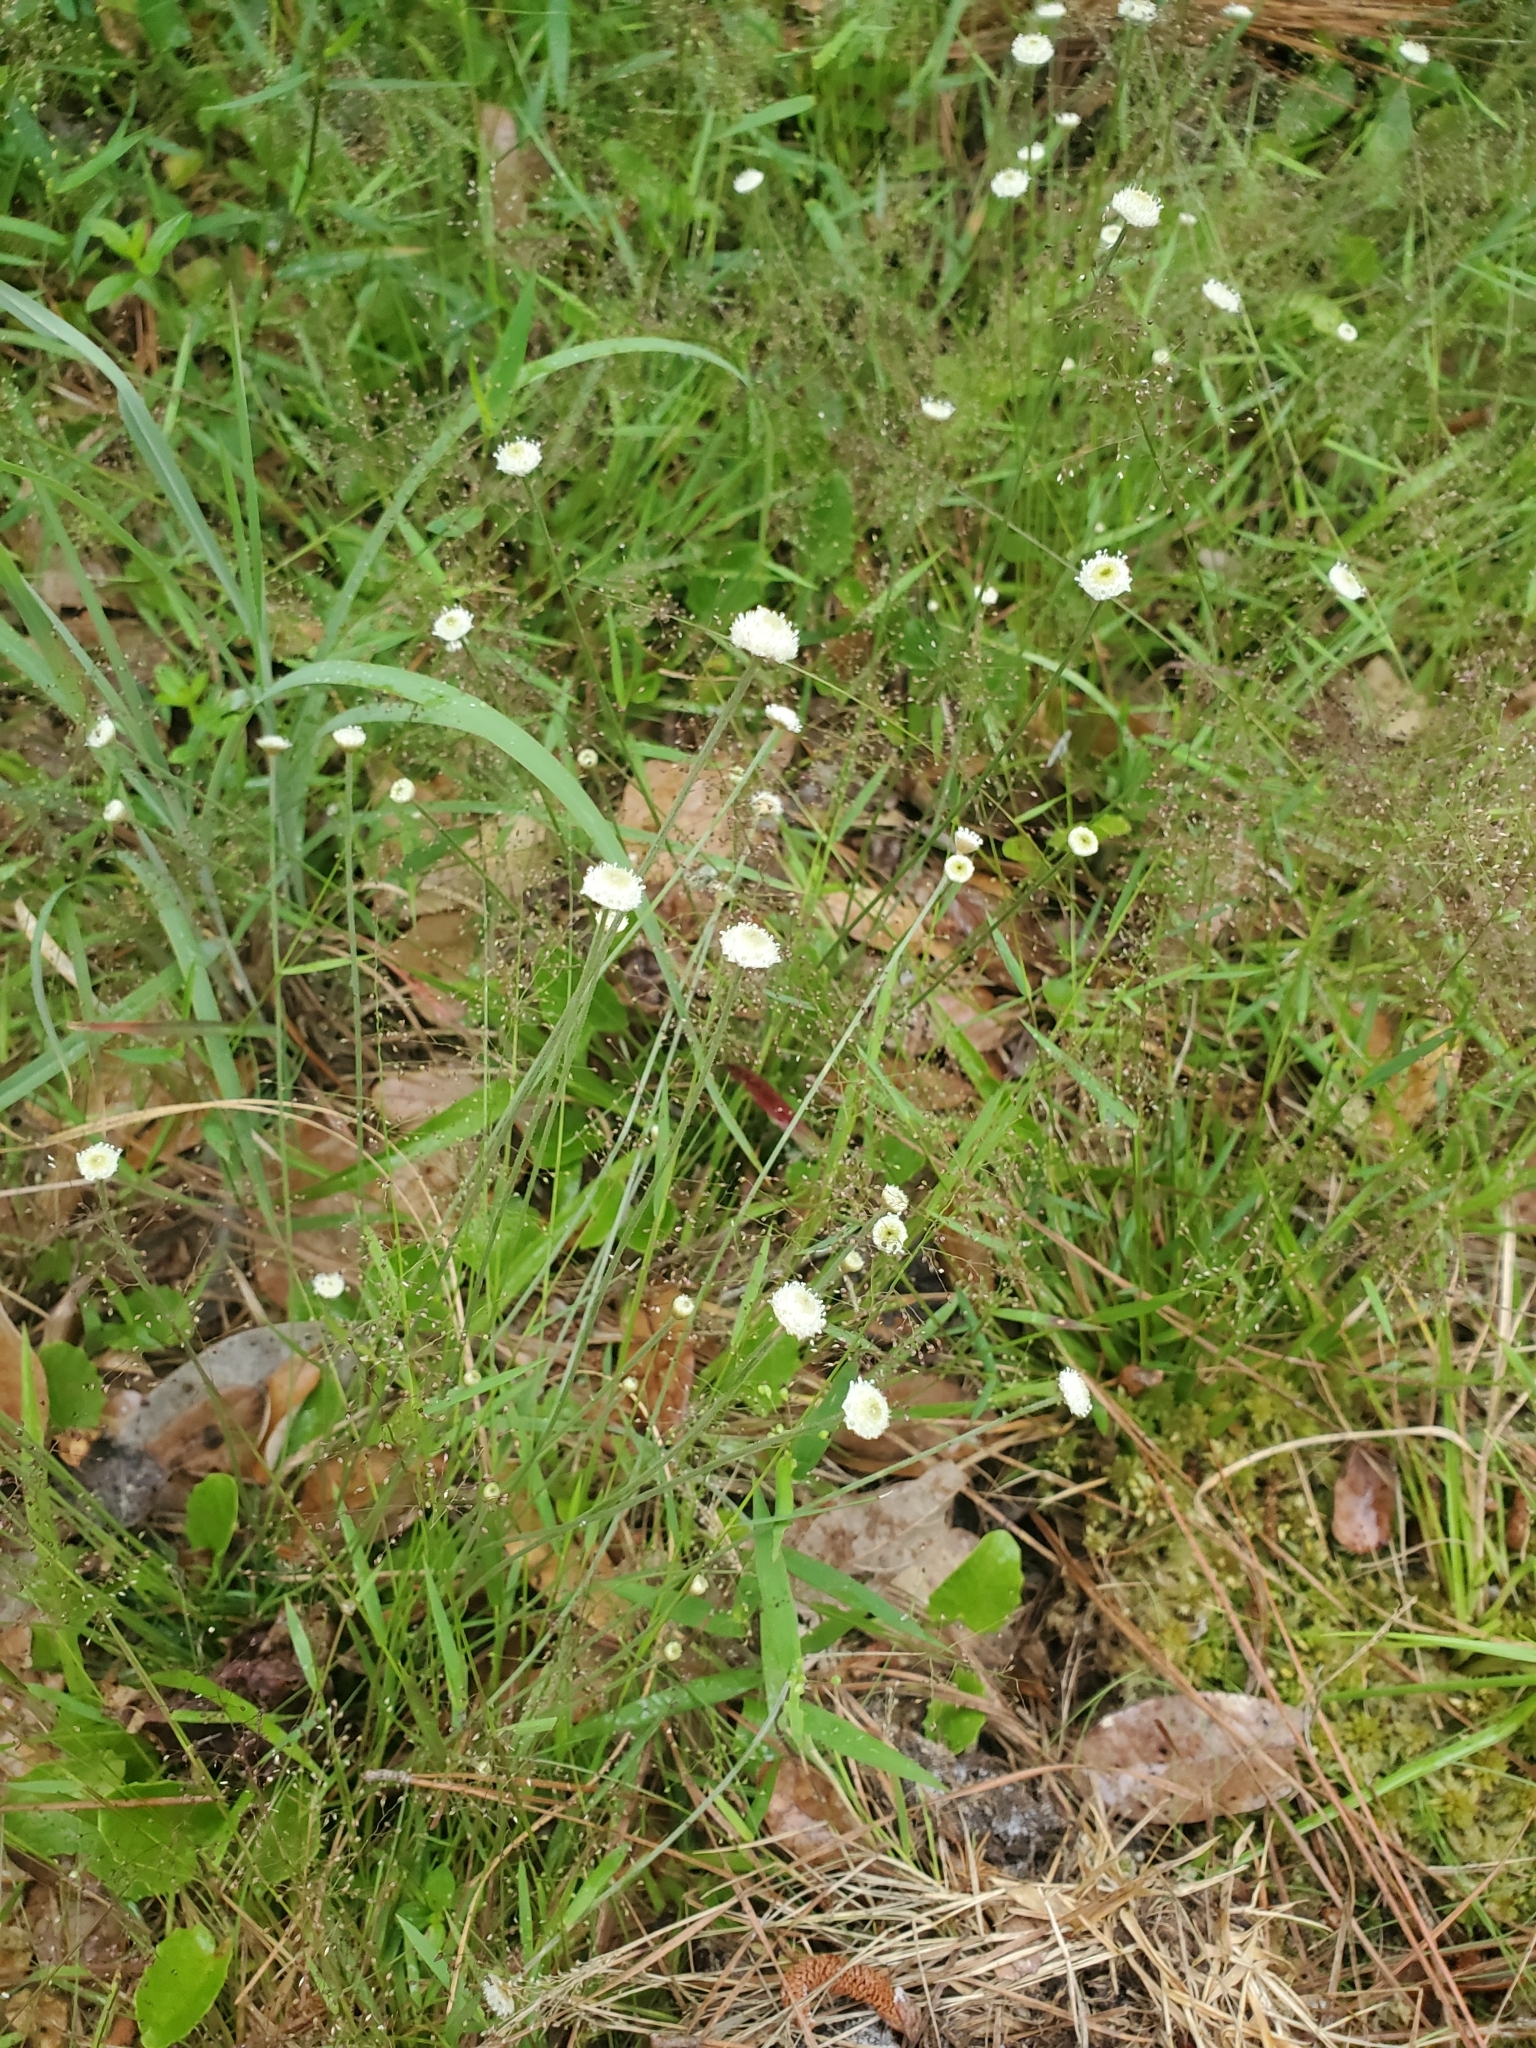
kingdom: Plantae
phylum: Tracheophyta
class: Liliopsida
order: Poales
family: Eriocaulaceae
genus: Syngonanthus
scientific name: Syngonanthus flavidulus
